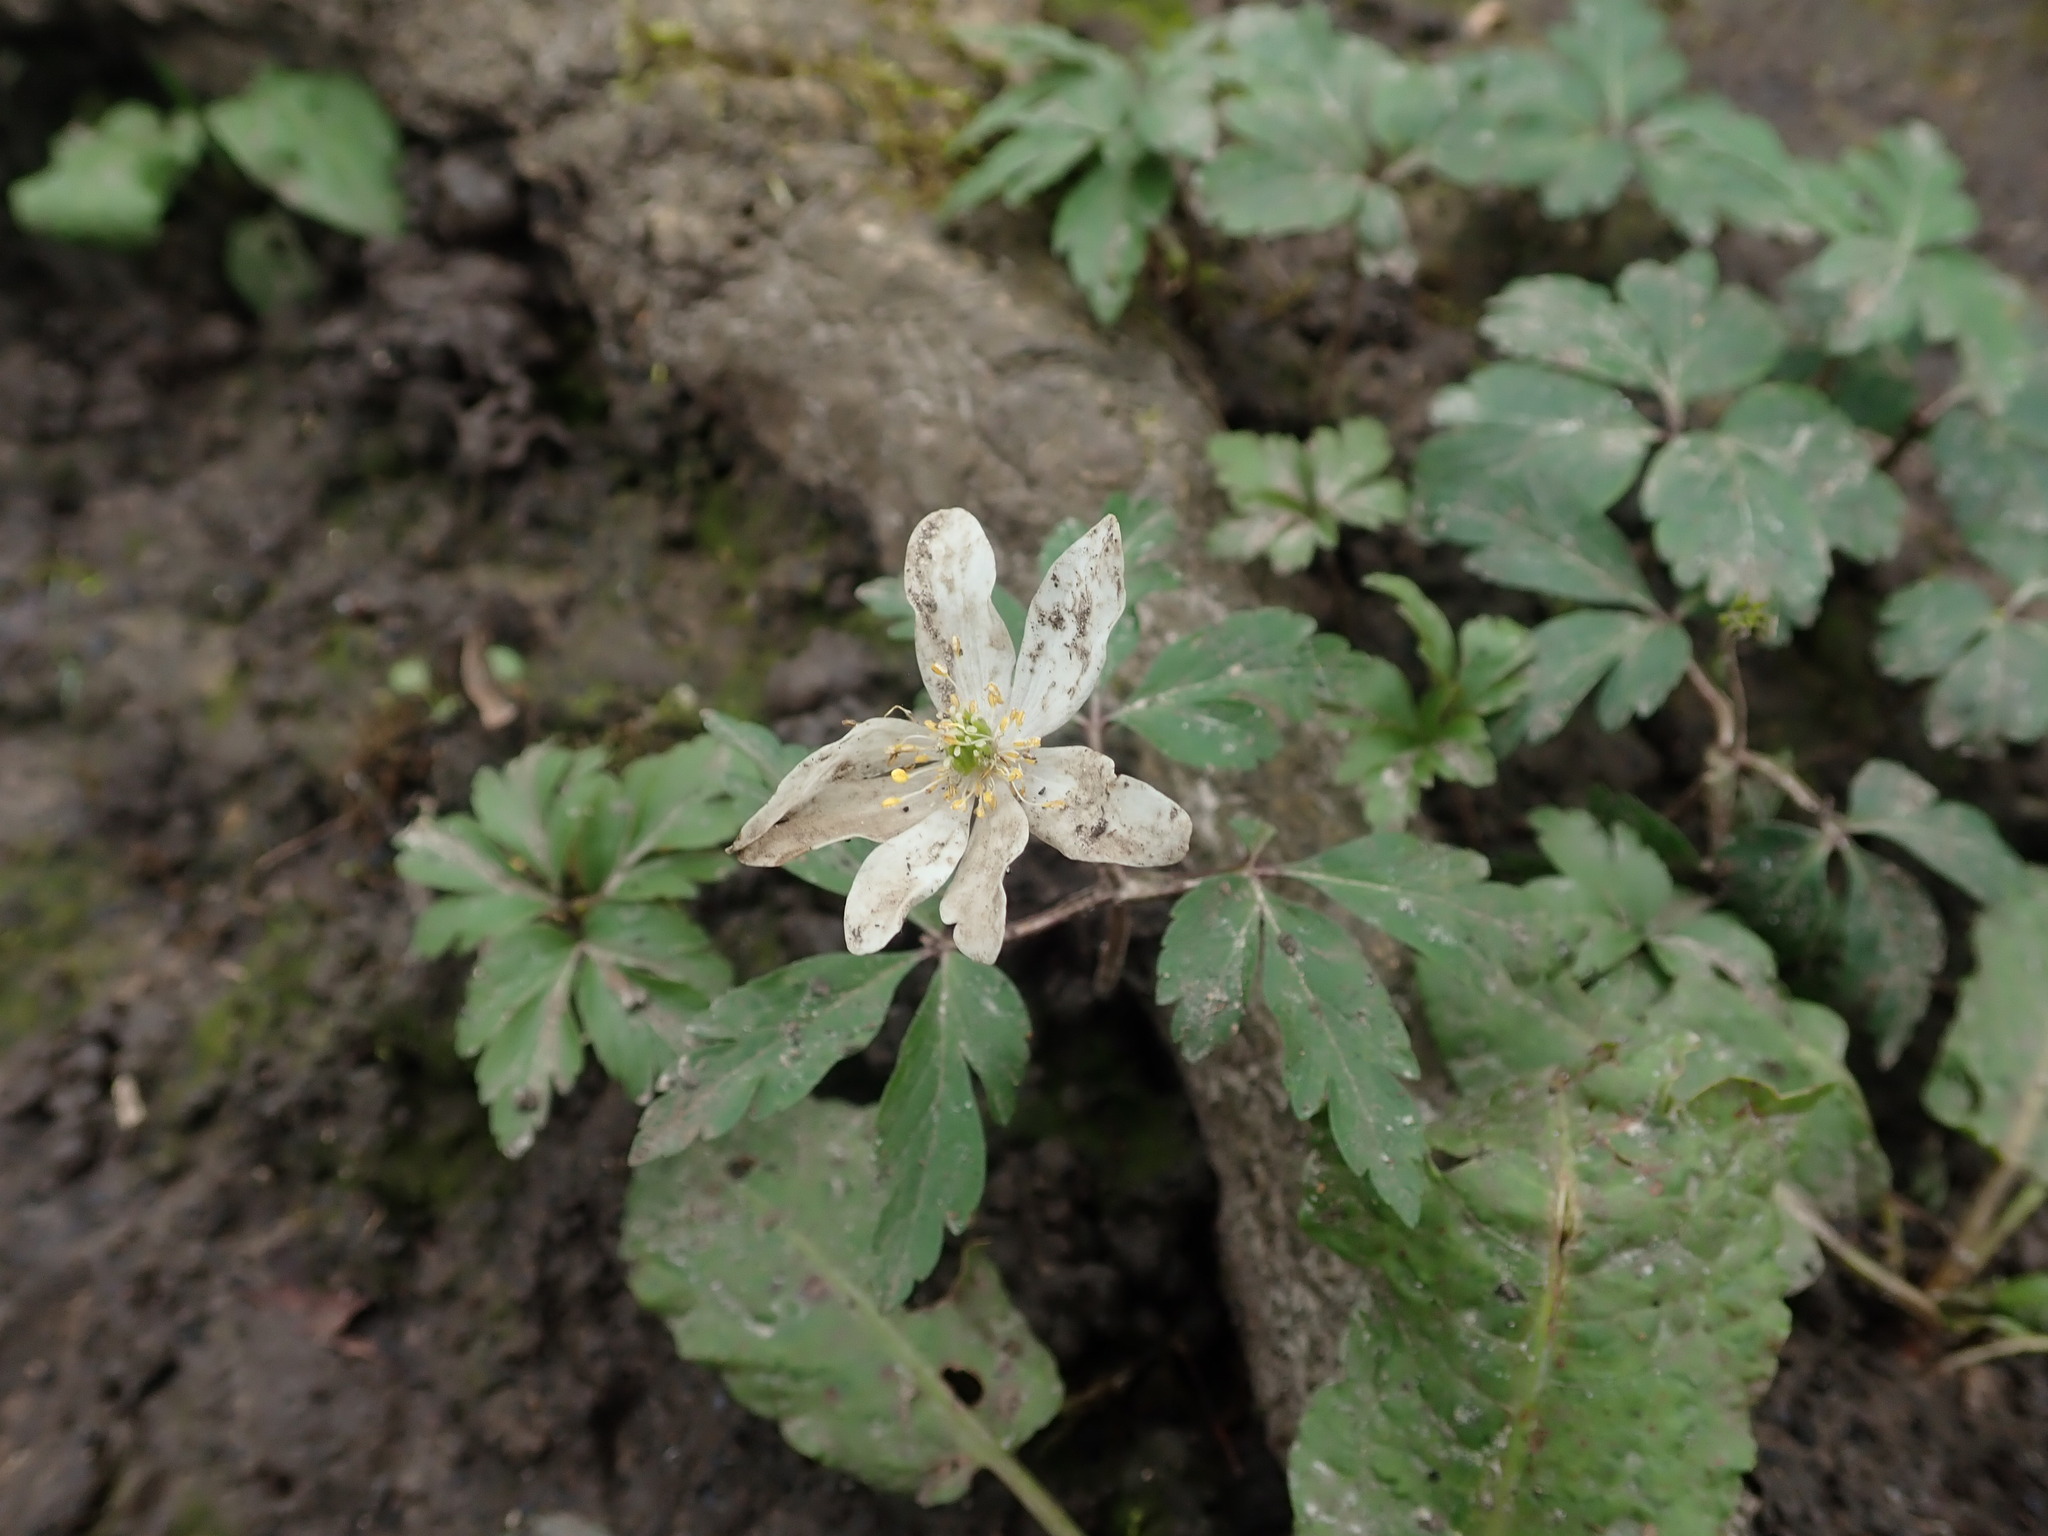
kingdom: Plantae
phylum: Tracheophyta
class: Magnoliopsida
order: Ranunculales
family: Ranunculaceae
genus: Anemone
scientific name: Anemone nemorosa
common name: Wood anemone
